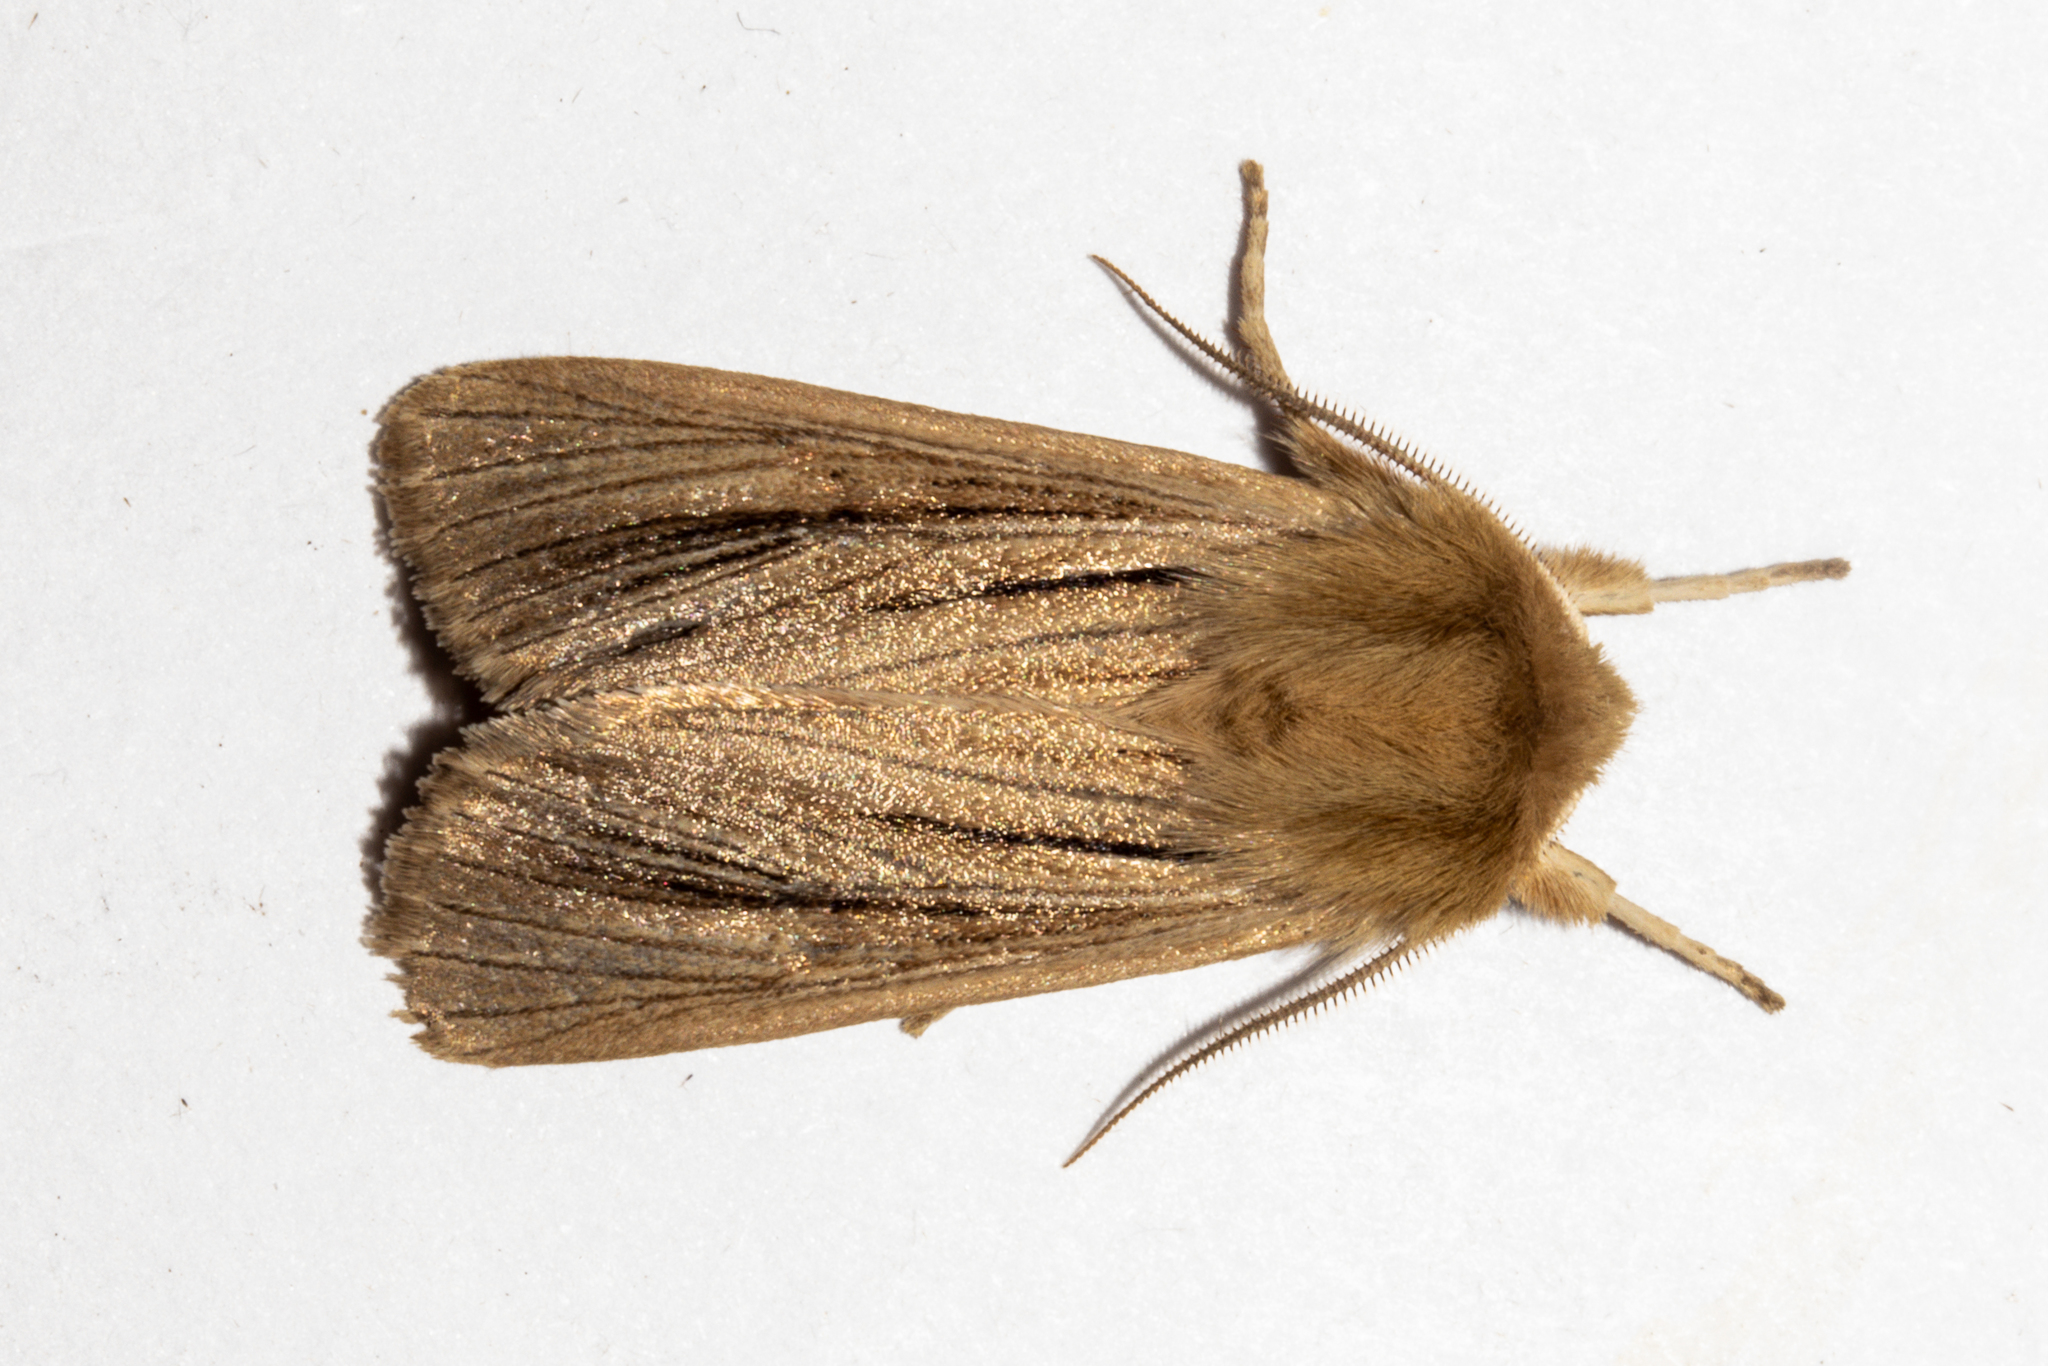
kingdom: Animalia
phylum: Arthropoda
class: Insecta
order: Lepidoptera
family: Noctuidae
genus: Ichneutica
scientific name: Ichneutica
